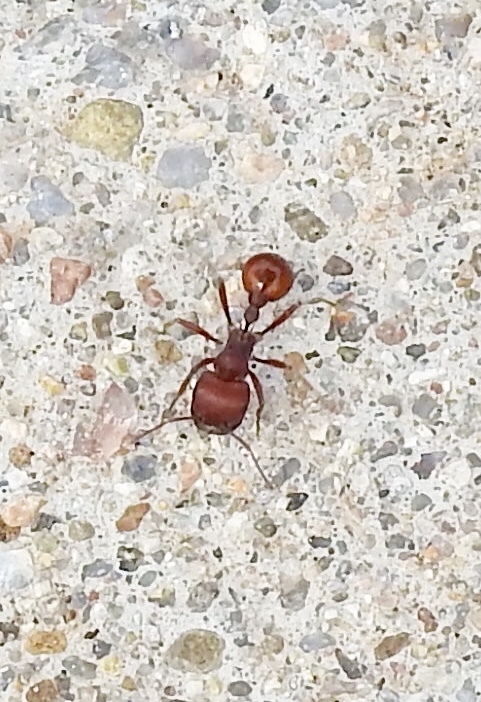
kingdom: Animalia
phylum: Arthropoda
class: Insecta
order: Hymenoptera
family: Formicidae
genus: Pogonomyrmex
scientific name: Pogonomyrmex barbatus
